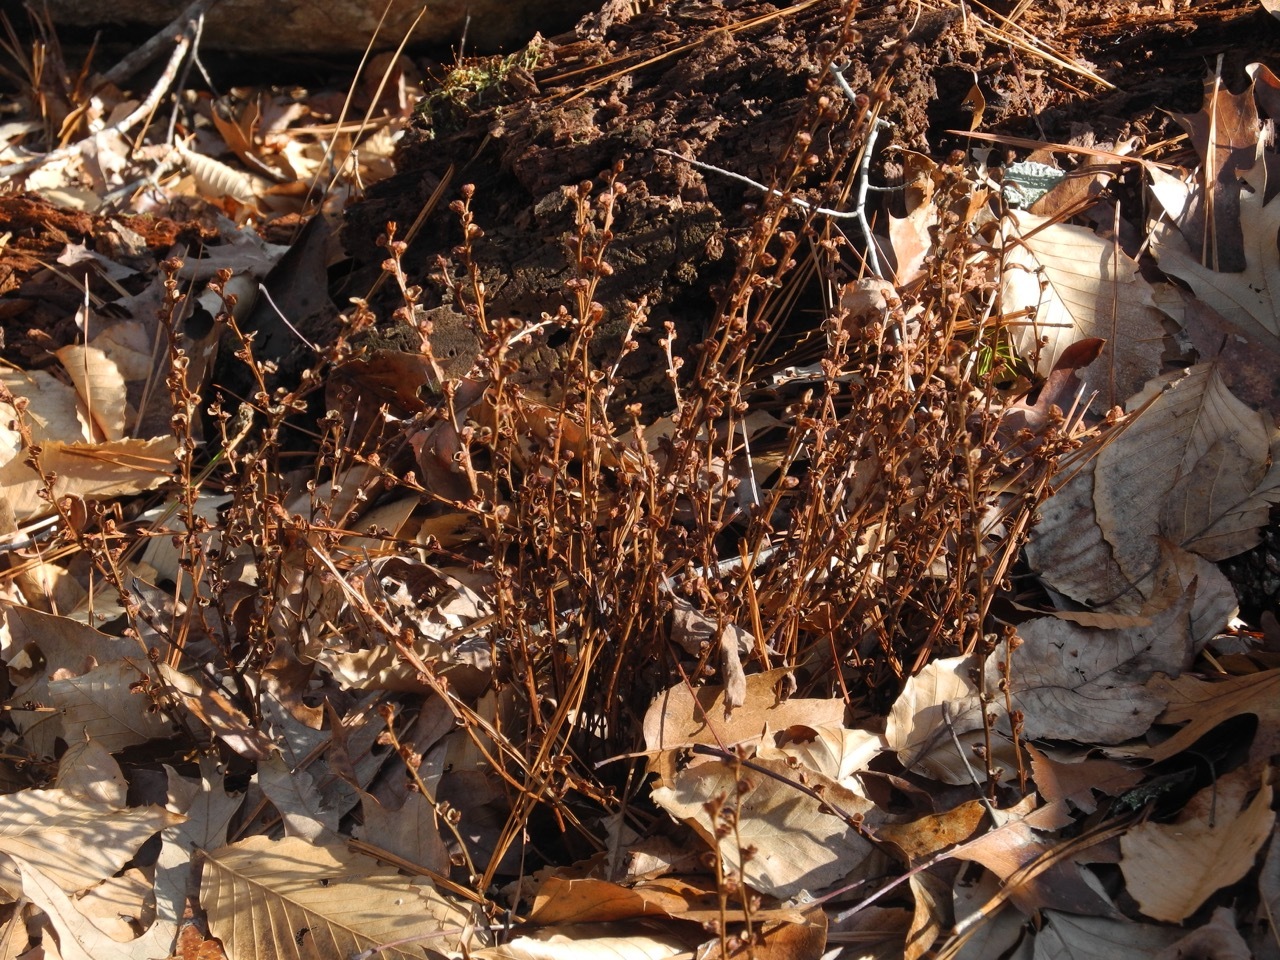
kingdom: Plantae
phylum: Tracheophyta
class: Magnoliopsida
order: Lamiales
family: Orobanchaceae
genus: Epifagus
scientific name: Epifagus virginiana
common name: Beechdrops
